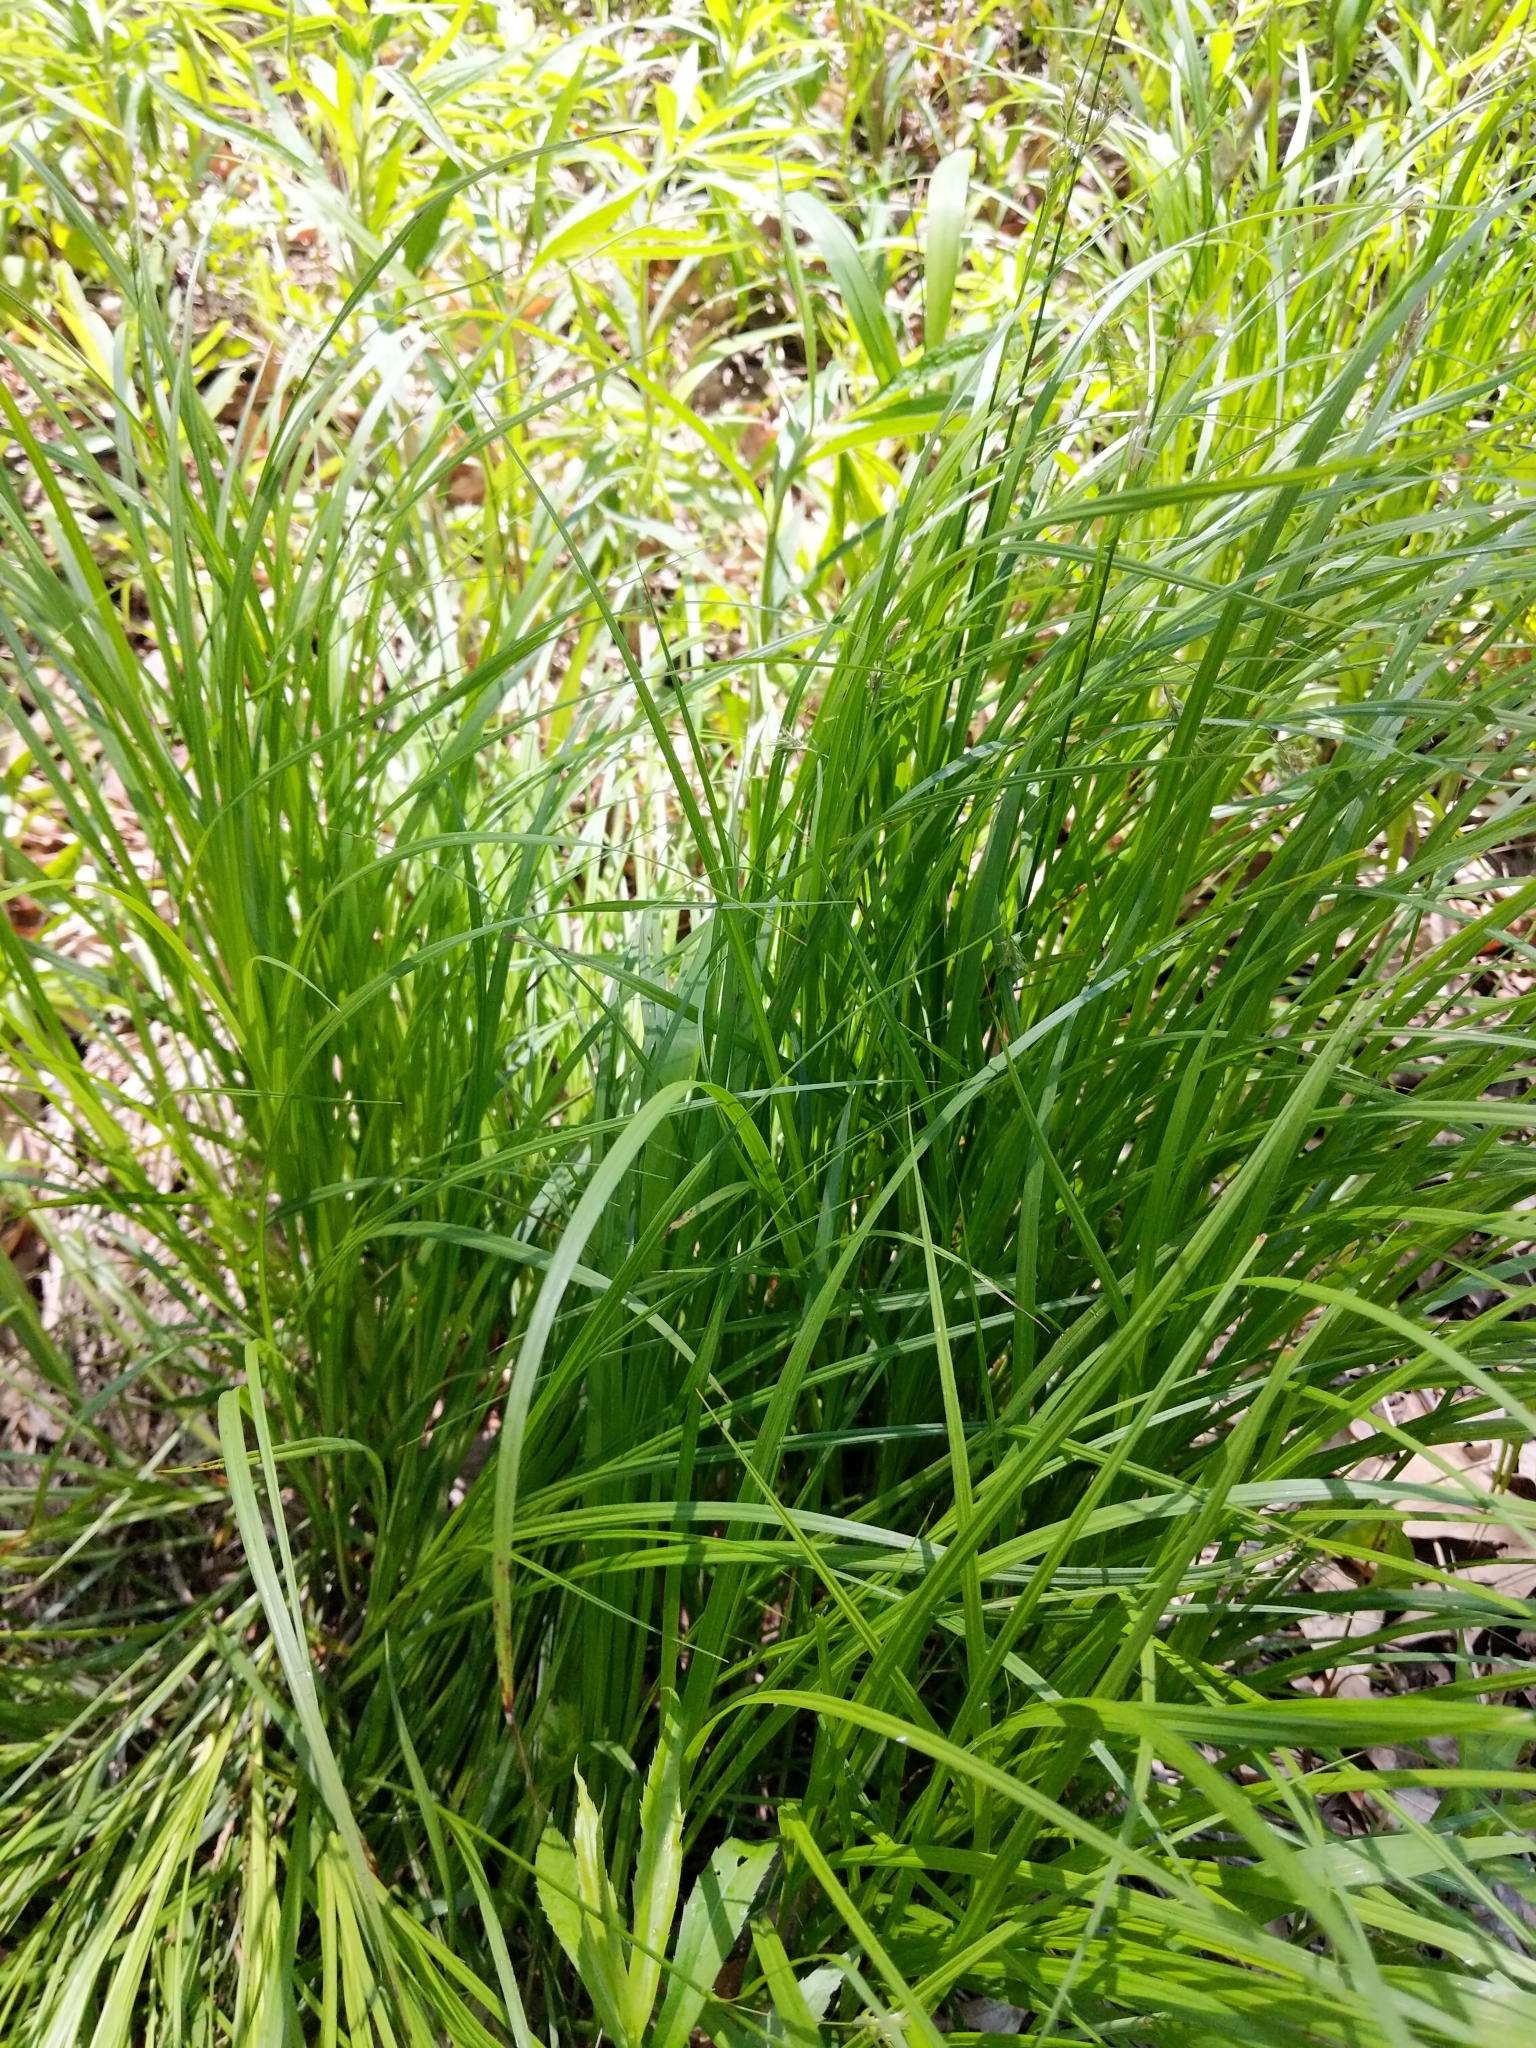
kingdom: Plantae
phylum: Tracheophyta
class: Liliopsida
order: Poales
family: Cyperaceae
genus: Carex
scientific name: Carex sprengelii
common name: Long-beaked sedge
